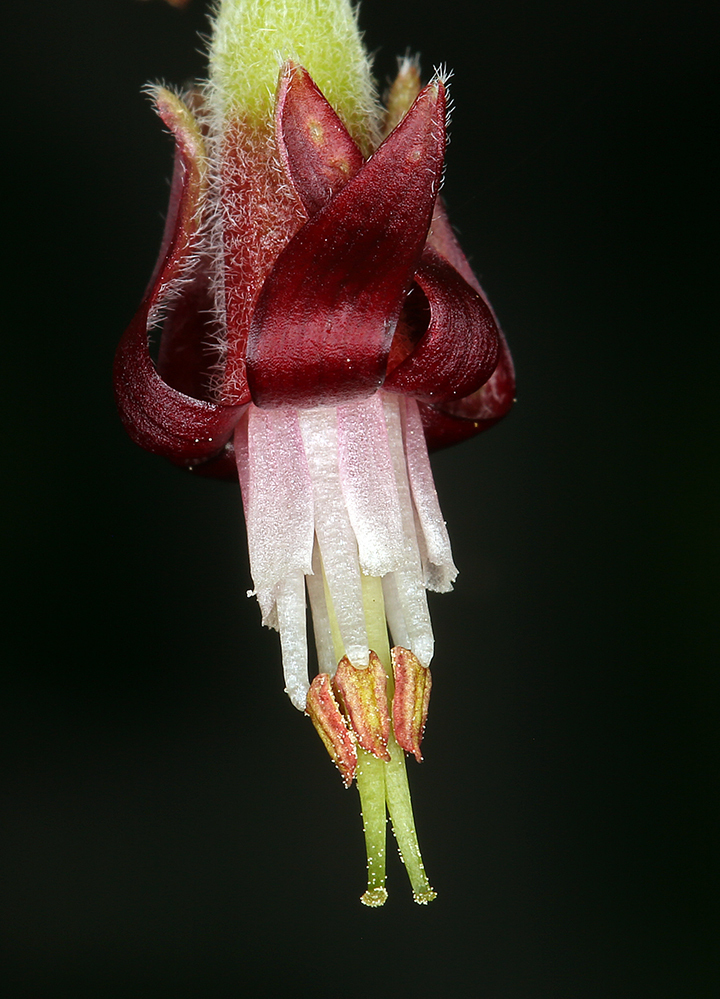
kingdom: Plantae
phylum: Tracheophyta
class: Magnoliopsida
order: Saxifragales
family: Grossulariaceae
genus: Ribes
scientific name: Ribes roezlii
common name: Sierra gooseberry
